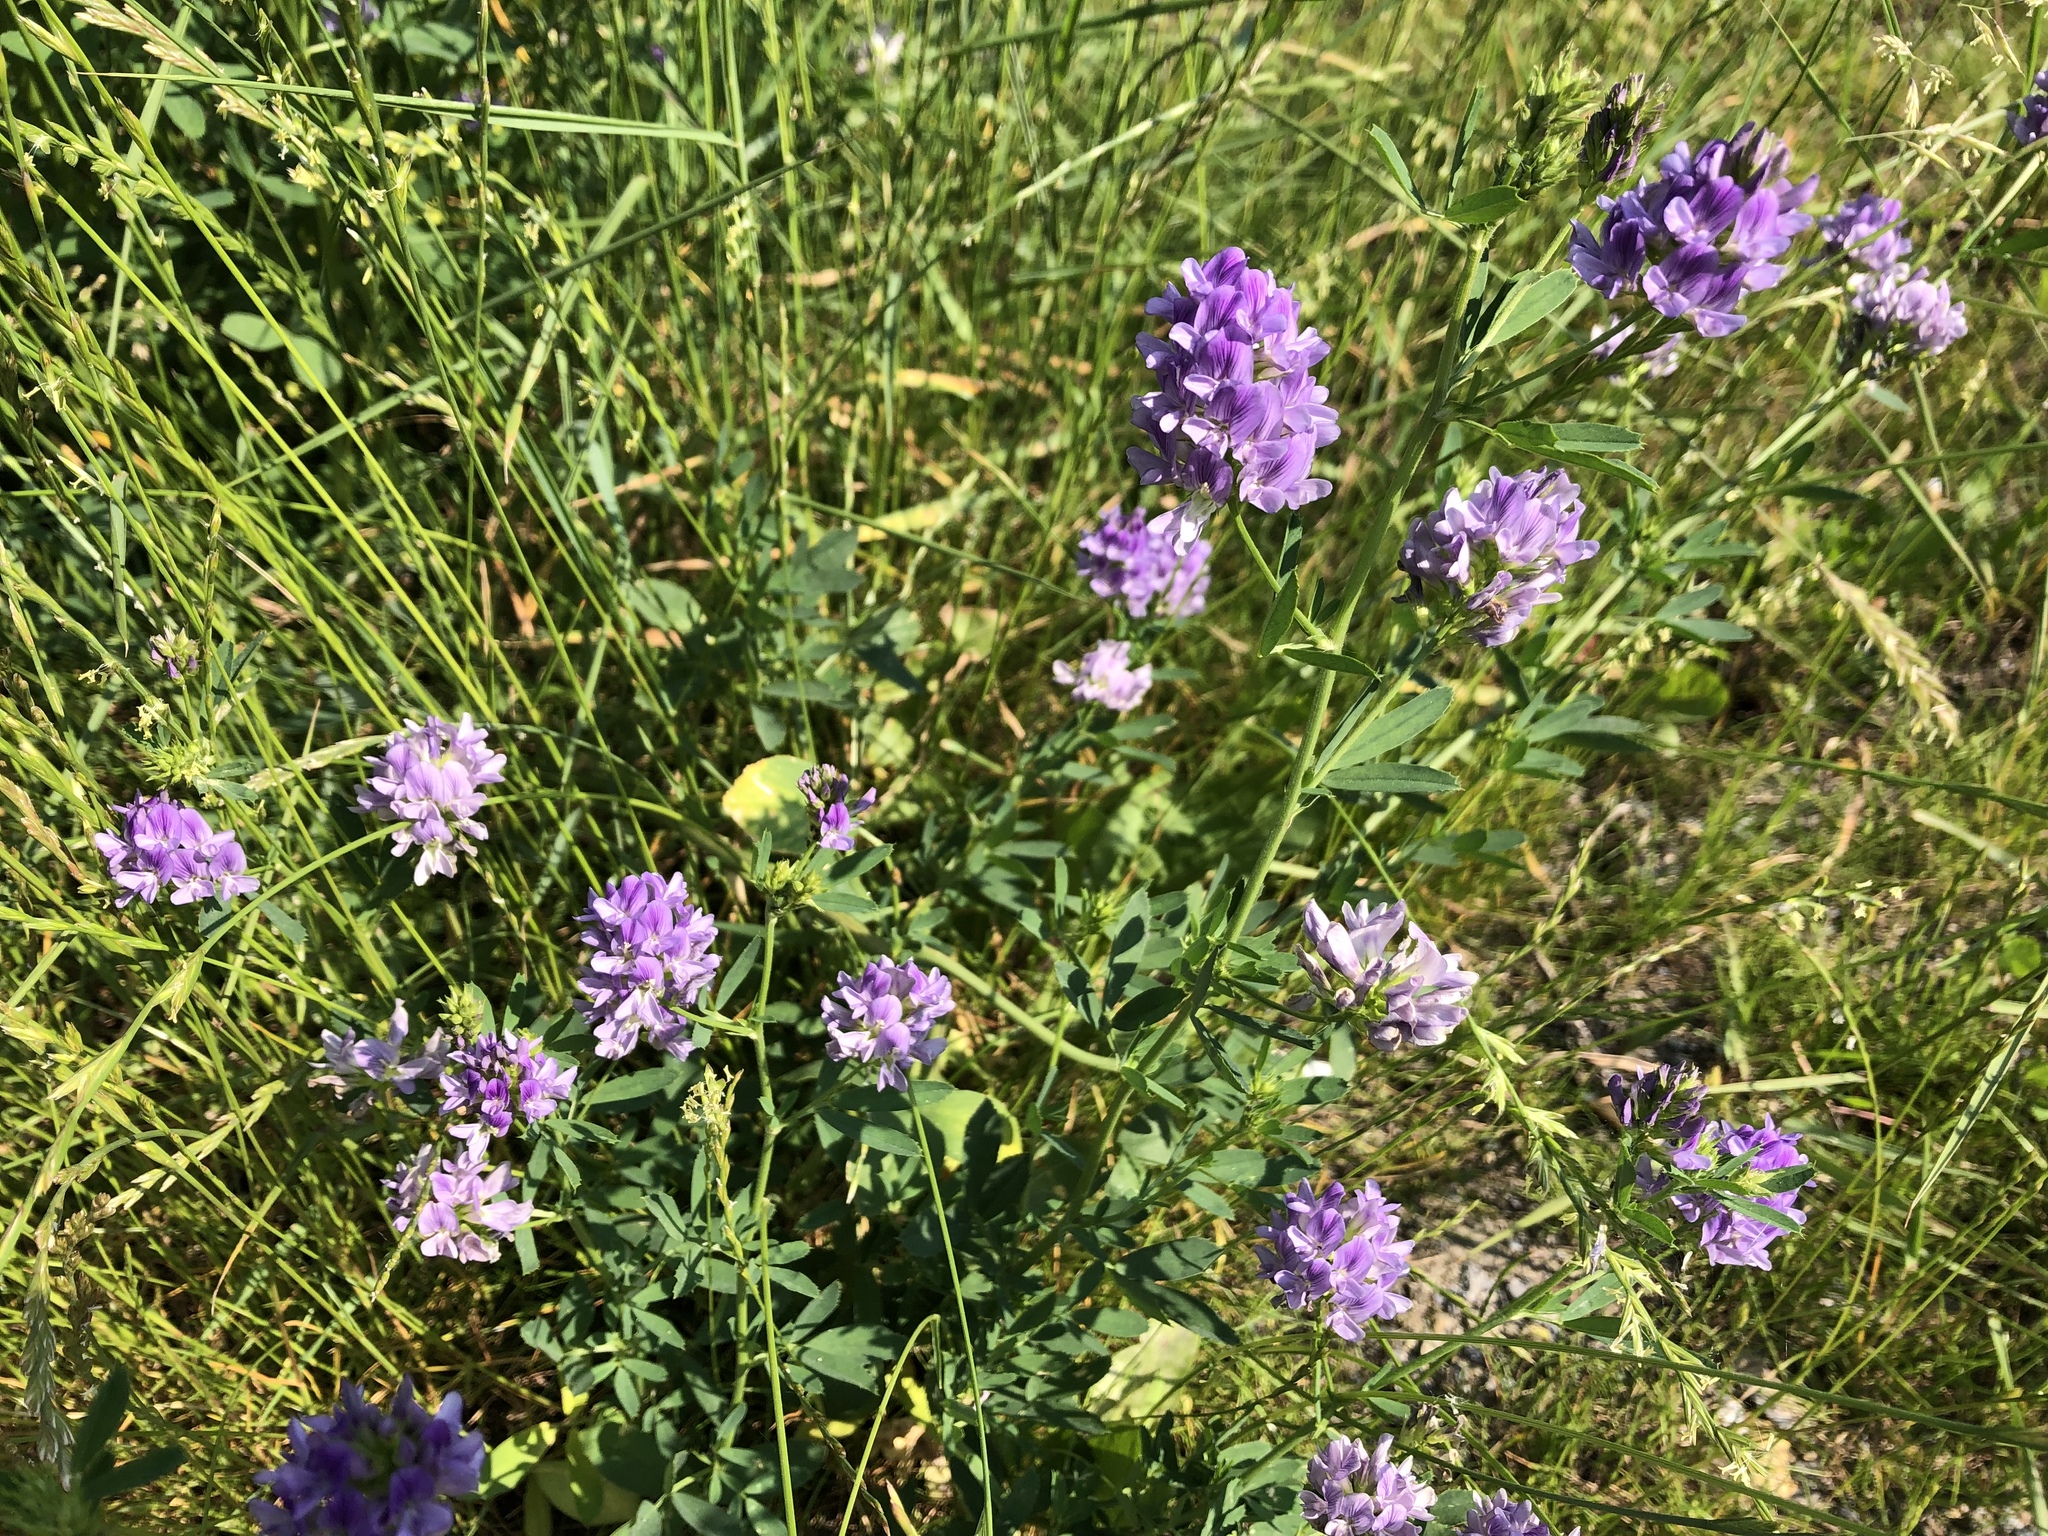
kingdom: Plantae
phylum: Tracheophyta
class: Magnoliopsida
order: Fabales
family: Fabaceae
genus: Medicago
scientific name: Medicago sativa
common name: Alfalfa
